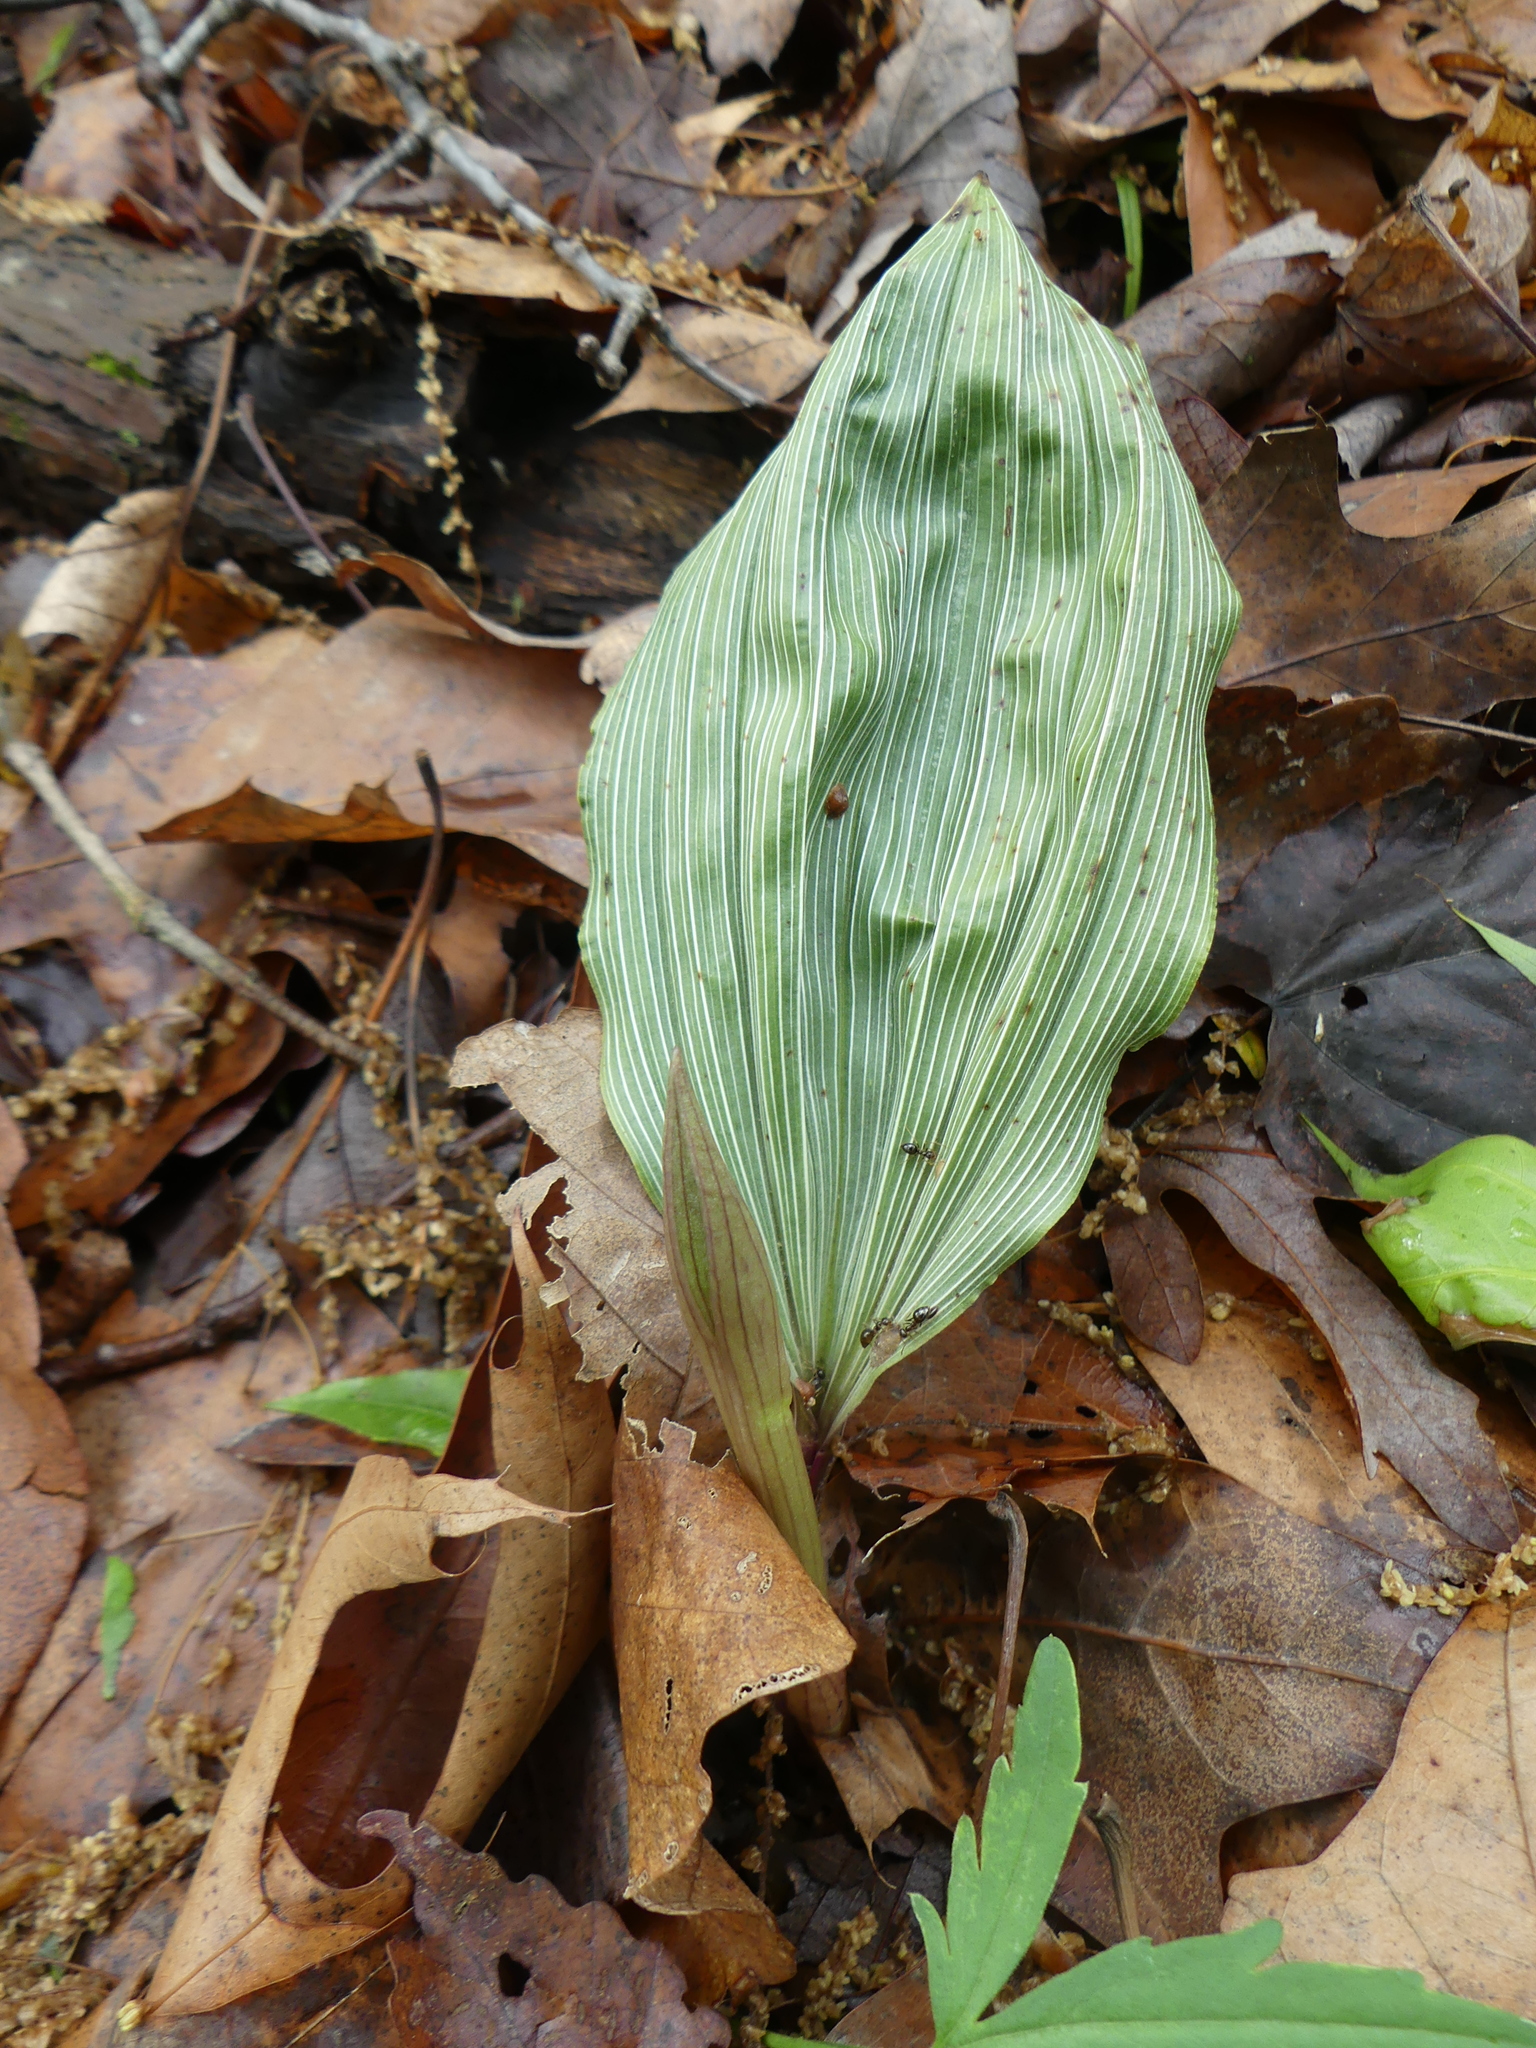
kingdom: Plantae
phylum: Tracheophyta
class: Liliopsida
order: Asparagales
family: Orchidaceae
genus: Aplectrum
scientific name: Aplectrum hyemale
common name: Adam-and-eve
